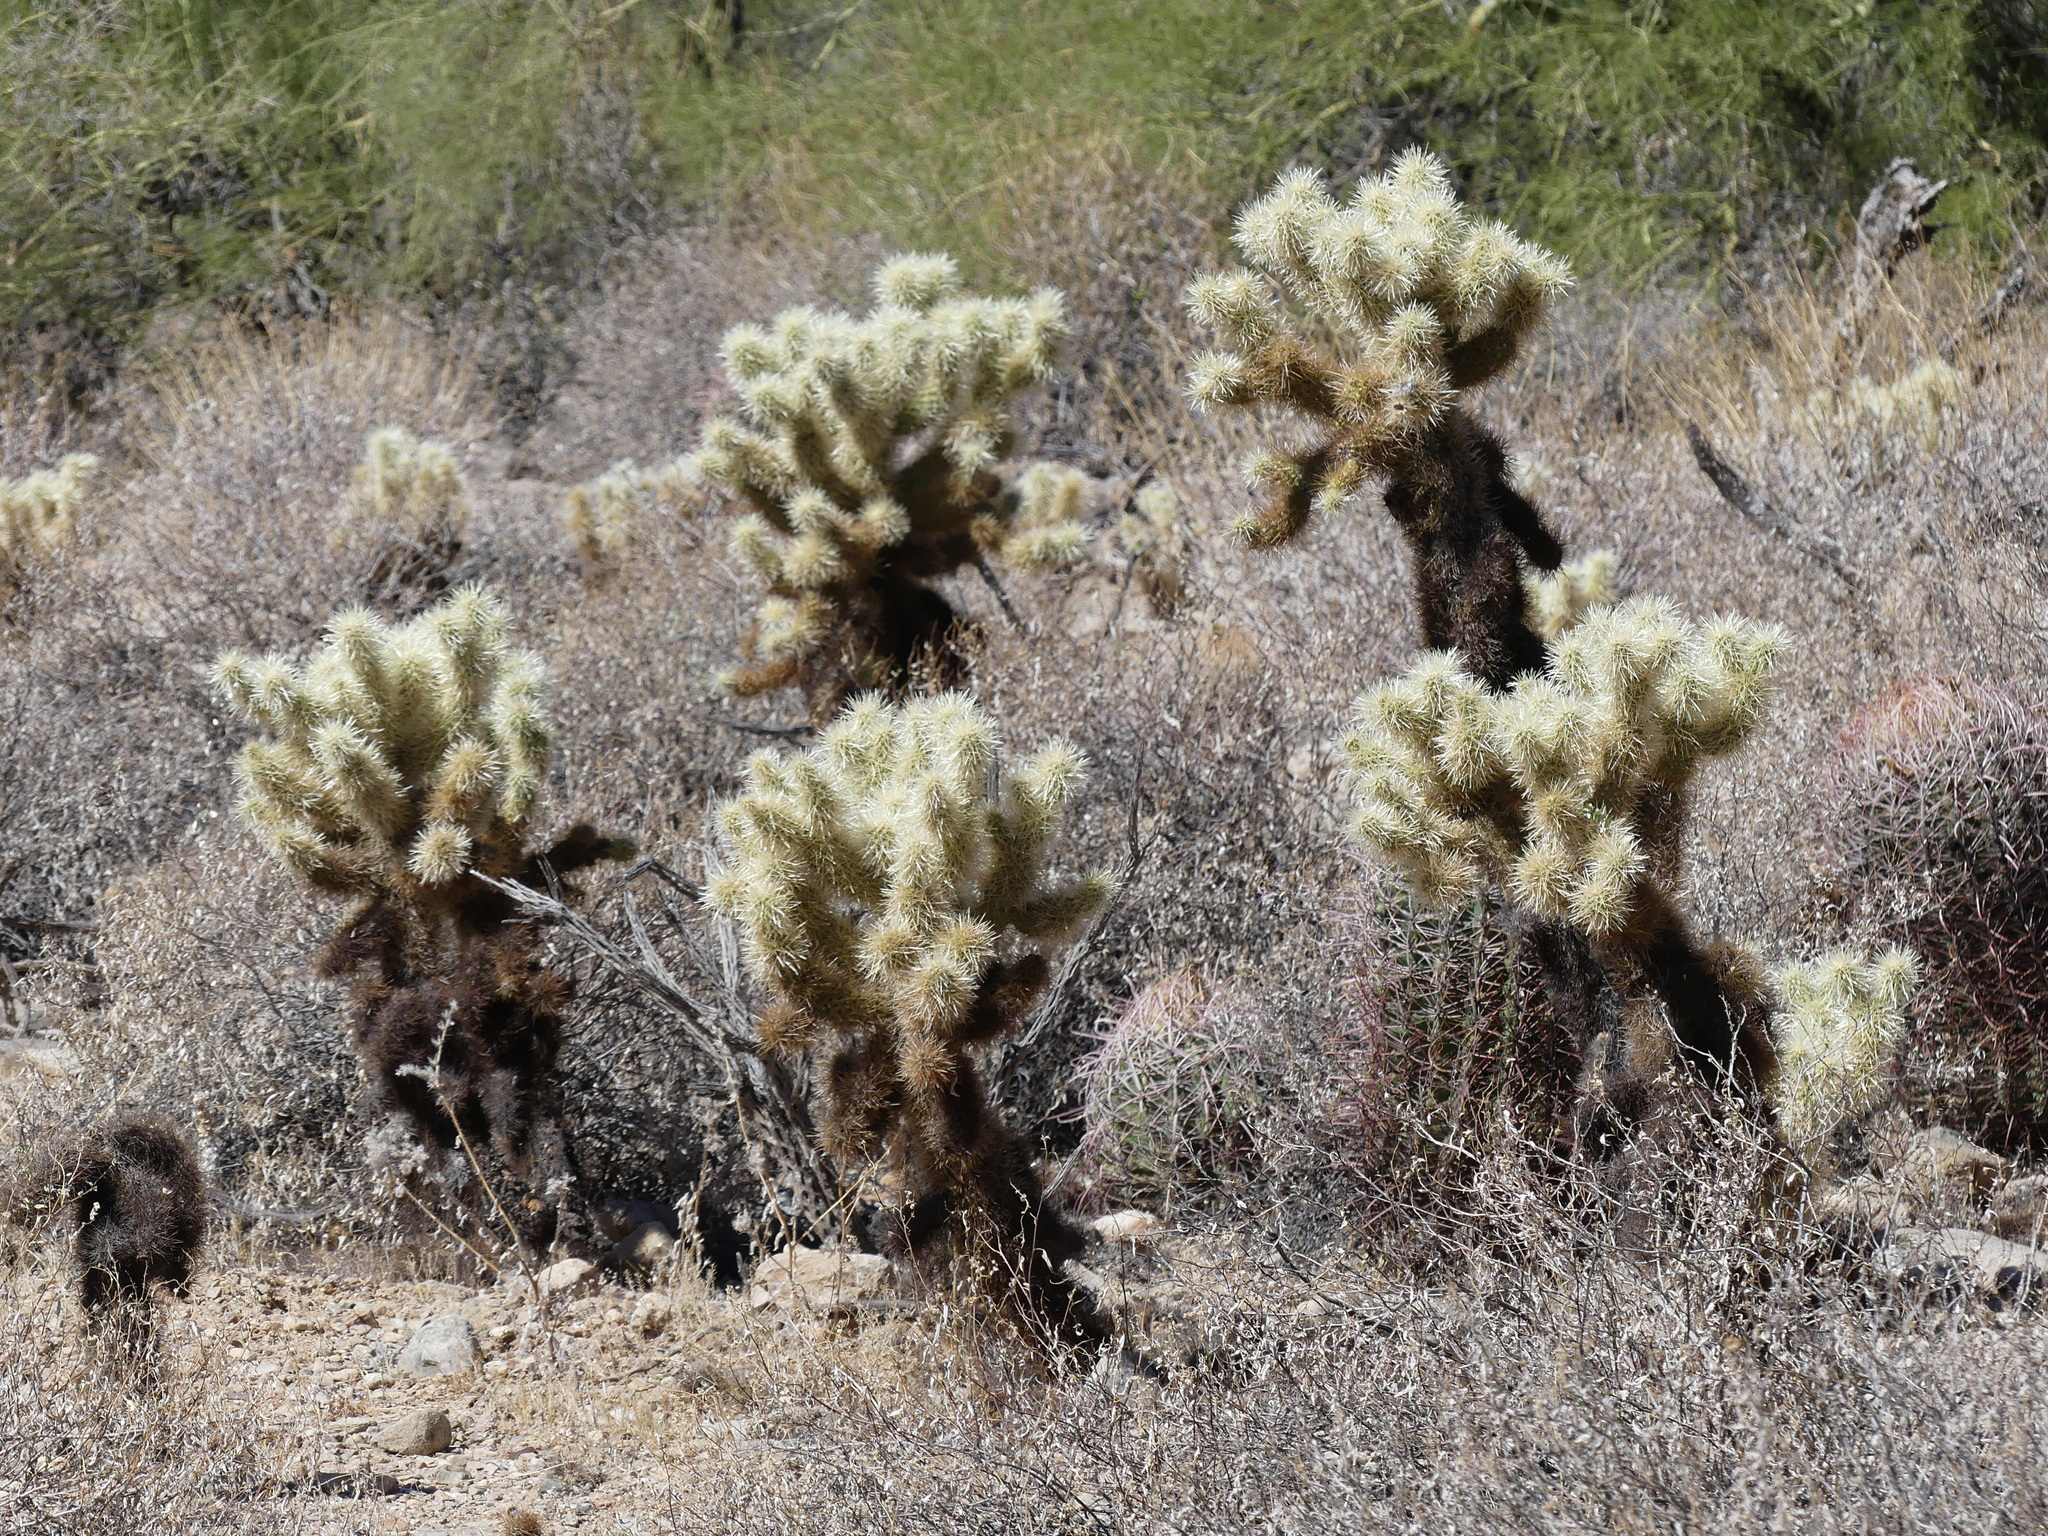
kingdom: Plantae
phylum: Tracheophyta
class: Magnoliopsida
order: Caryophyllales
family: Cactaceae
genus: Cylindropuntia
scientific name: Cylindropuntia fosbergii
